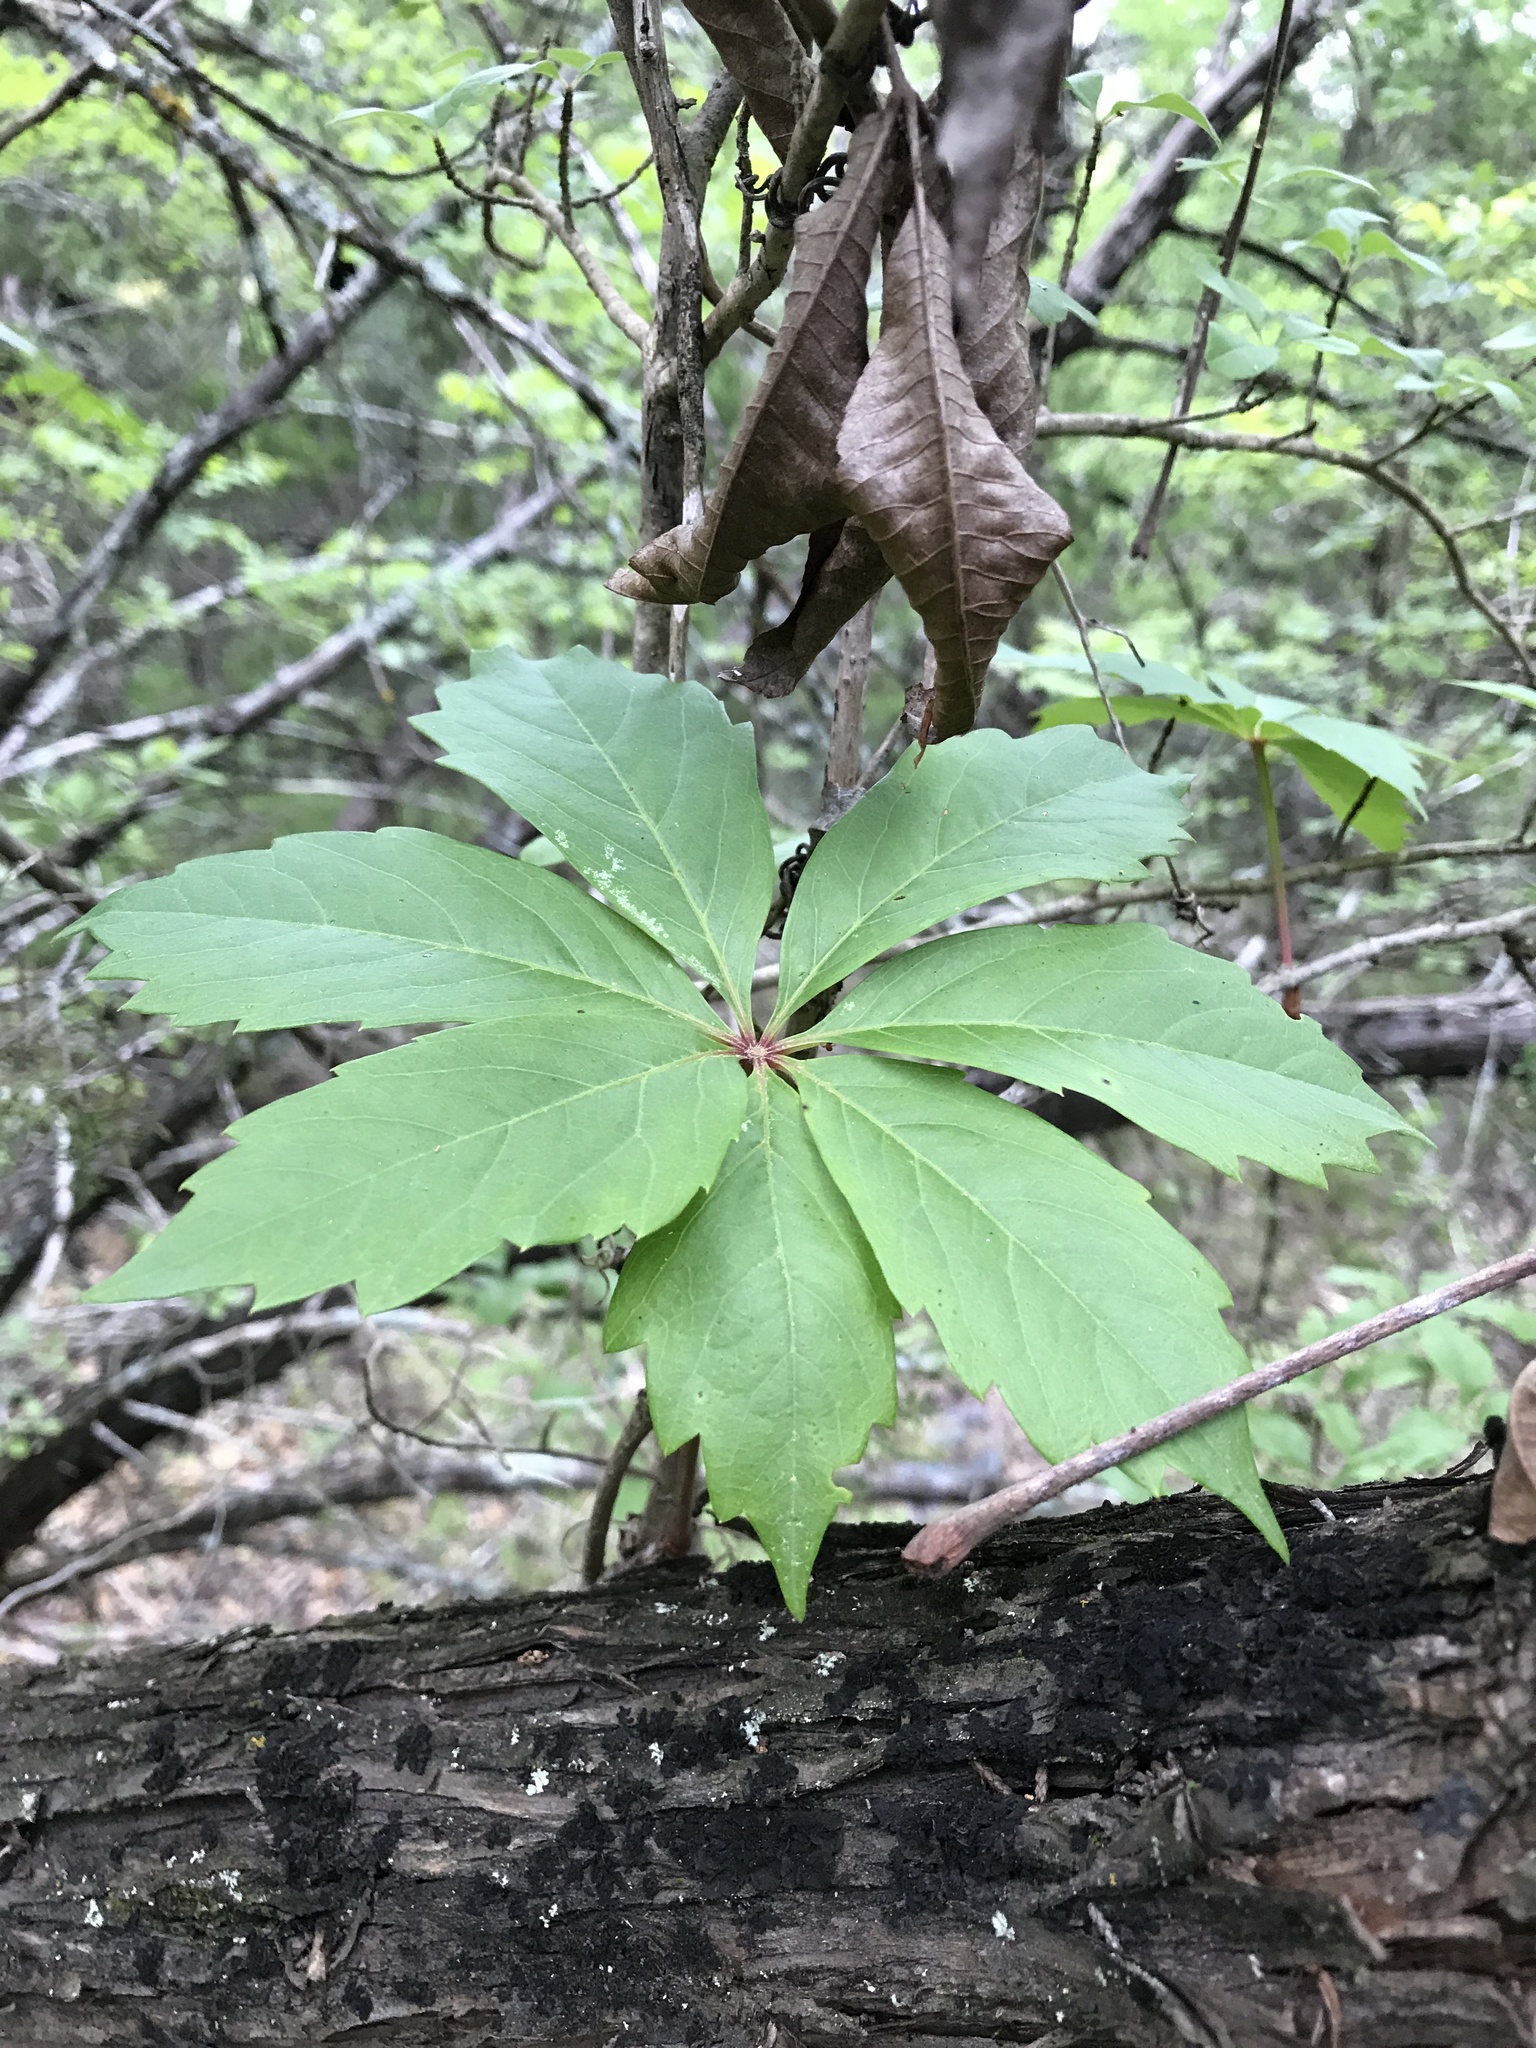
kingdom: Plantae
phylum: Tracheophyta
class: Magnoliopsida
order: Vitales
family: Vitaceae
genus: Parthenocissus
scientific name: Parthenocissus heptaphylla
